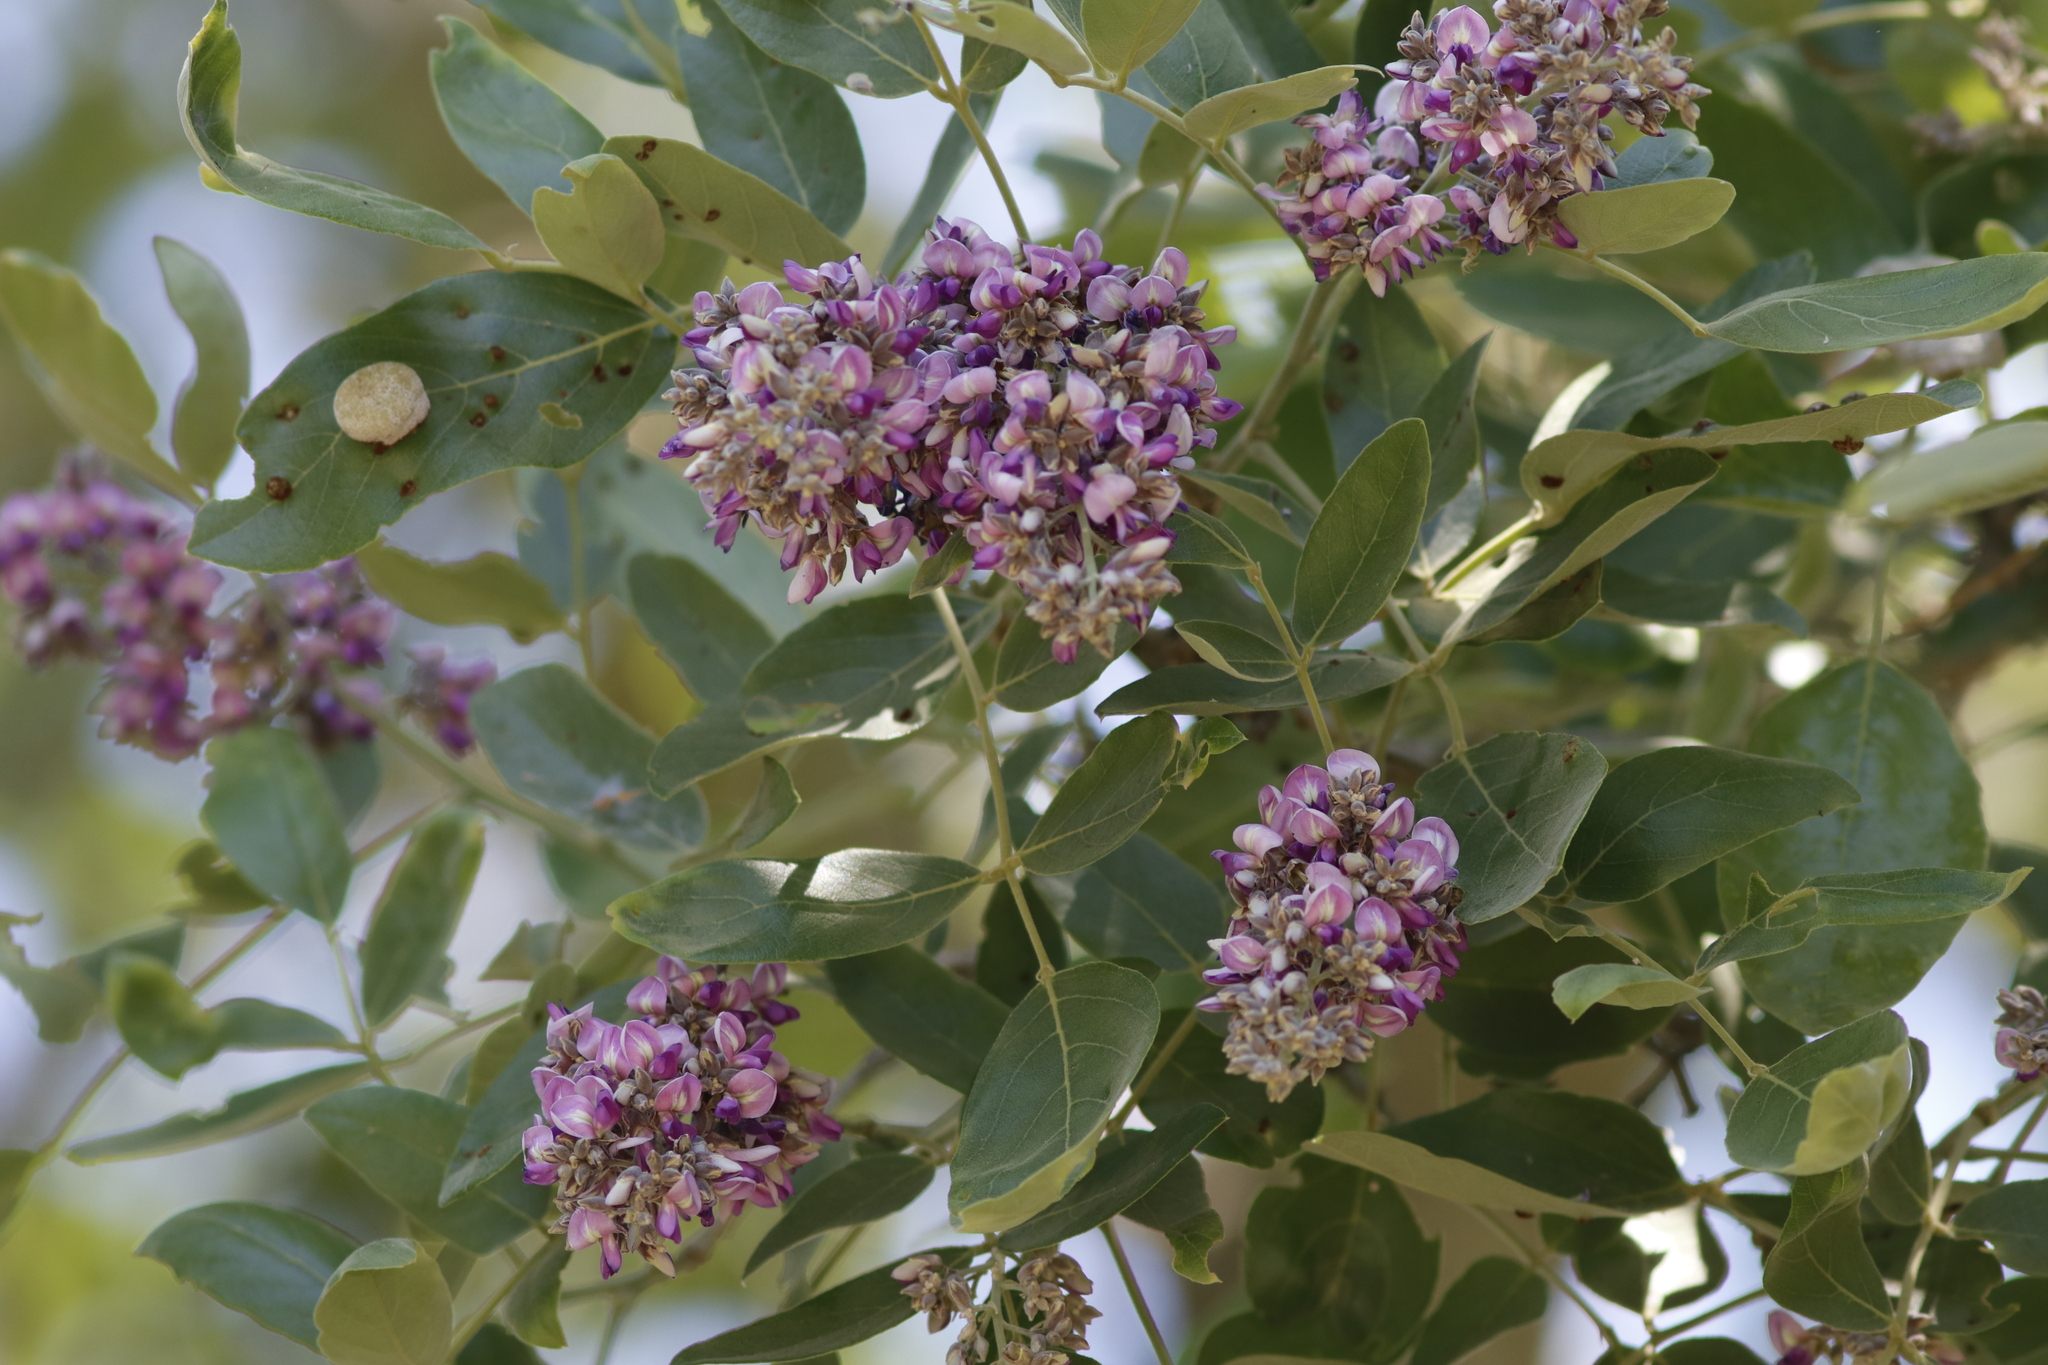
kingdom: Plantae
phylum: Tracheophyta
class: Magnoliopsida
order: Fabales
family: Fabaceae
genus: Philenoptera
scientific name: Philenoptera violacea
